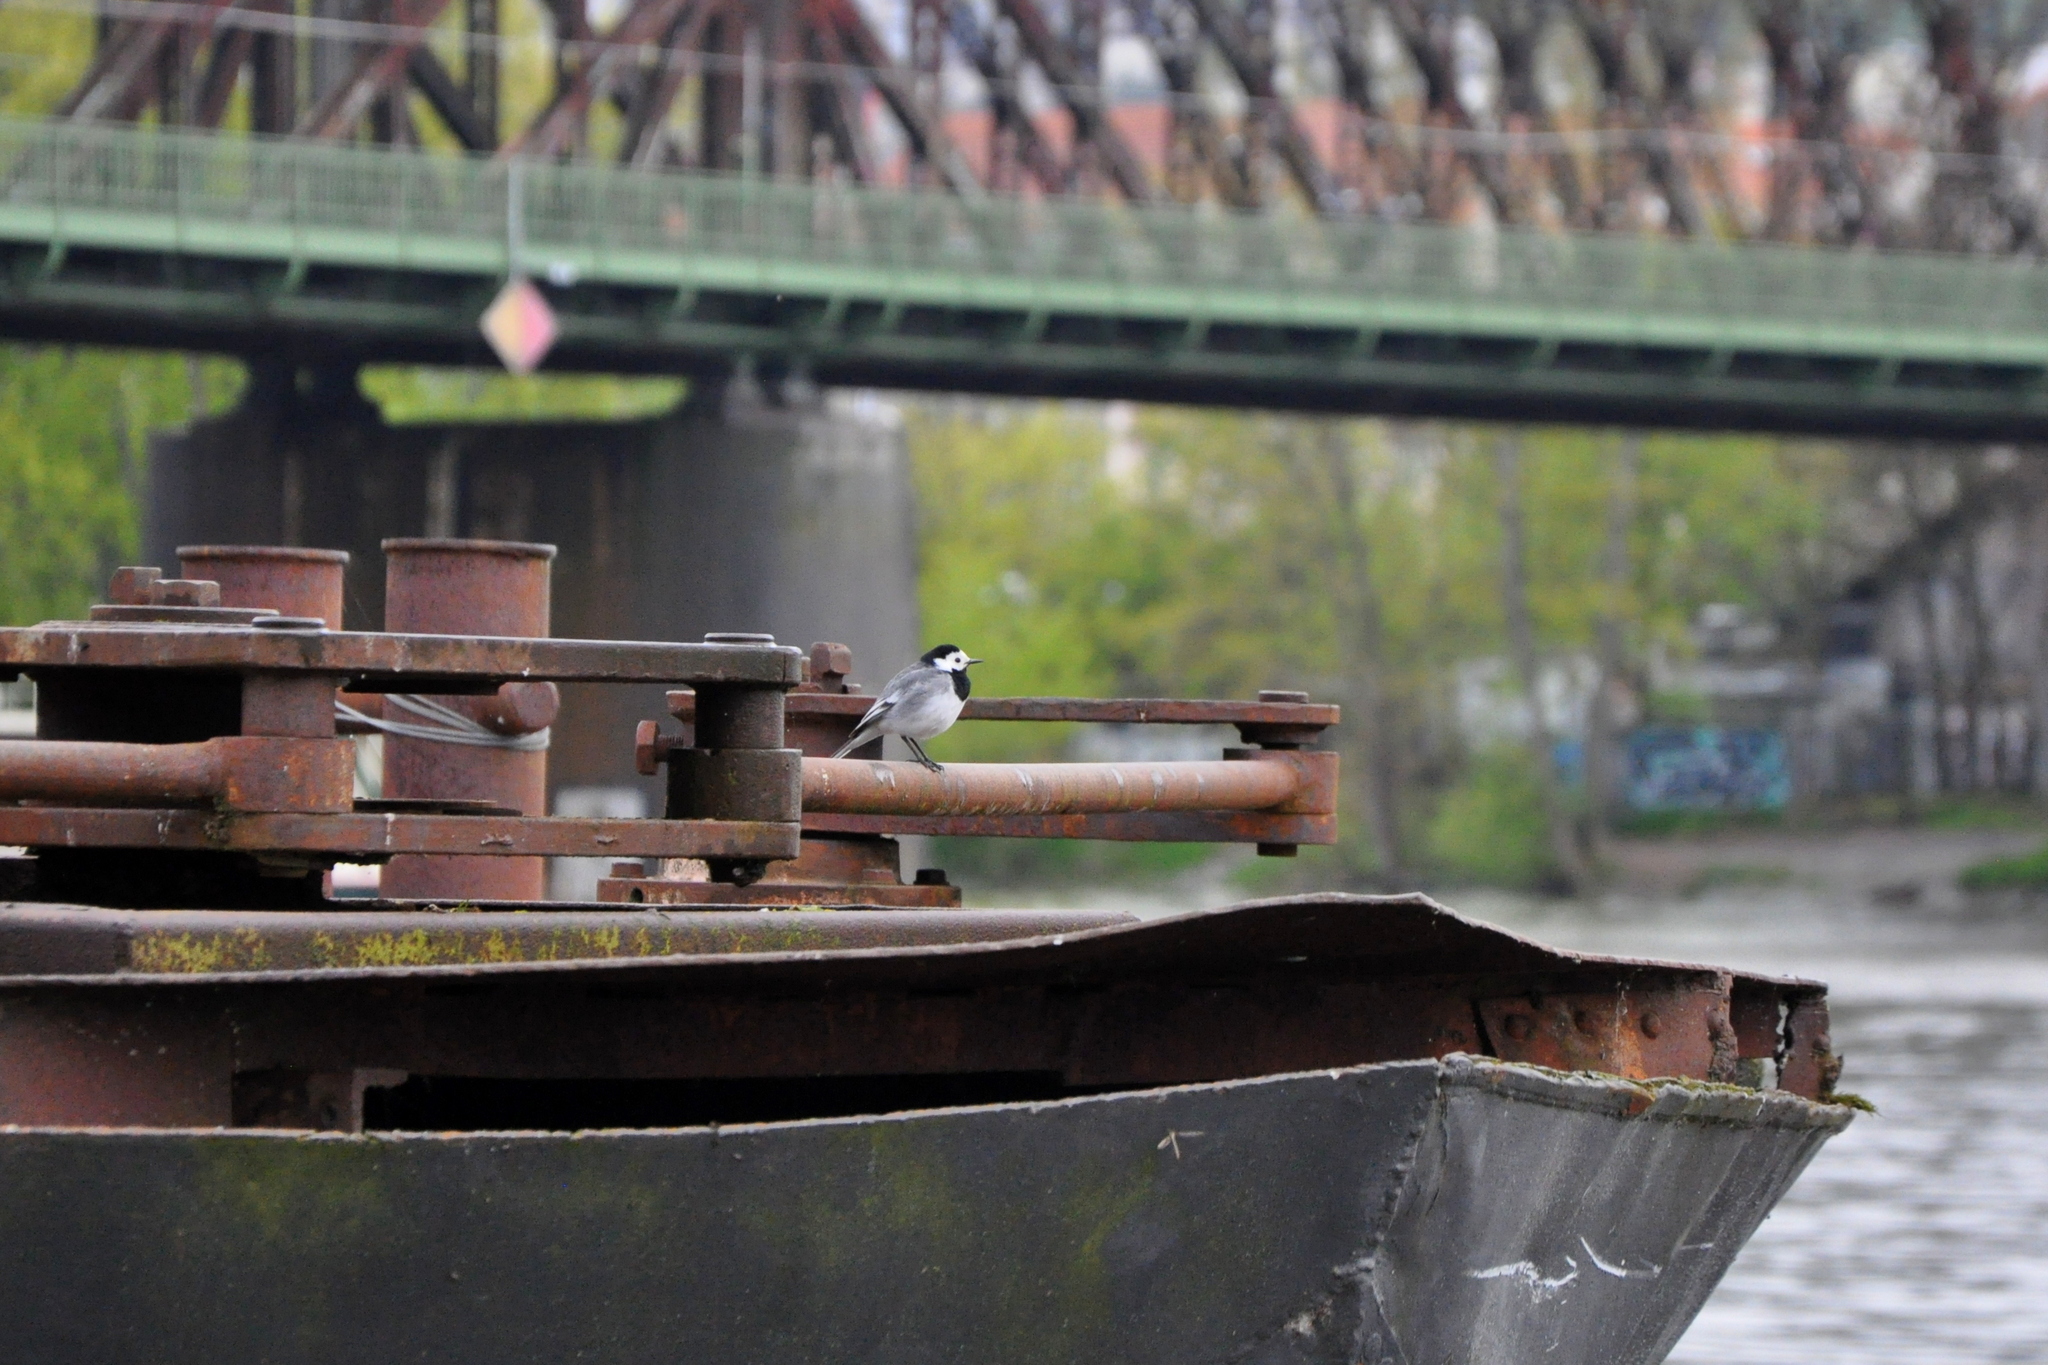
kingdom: Animalia
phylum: Chordata
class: Aves
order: Passeriformes
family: Motacillidae
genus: Motacilla
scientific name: Motacilla alba
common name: White wagtail
